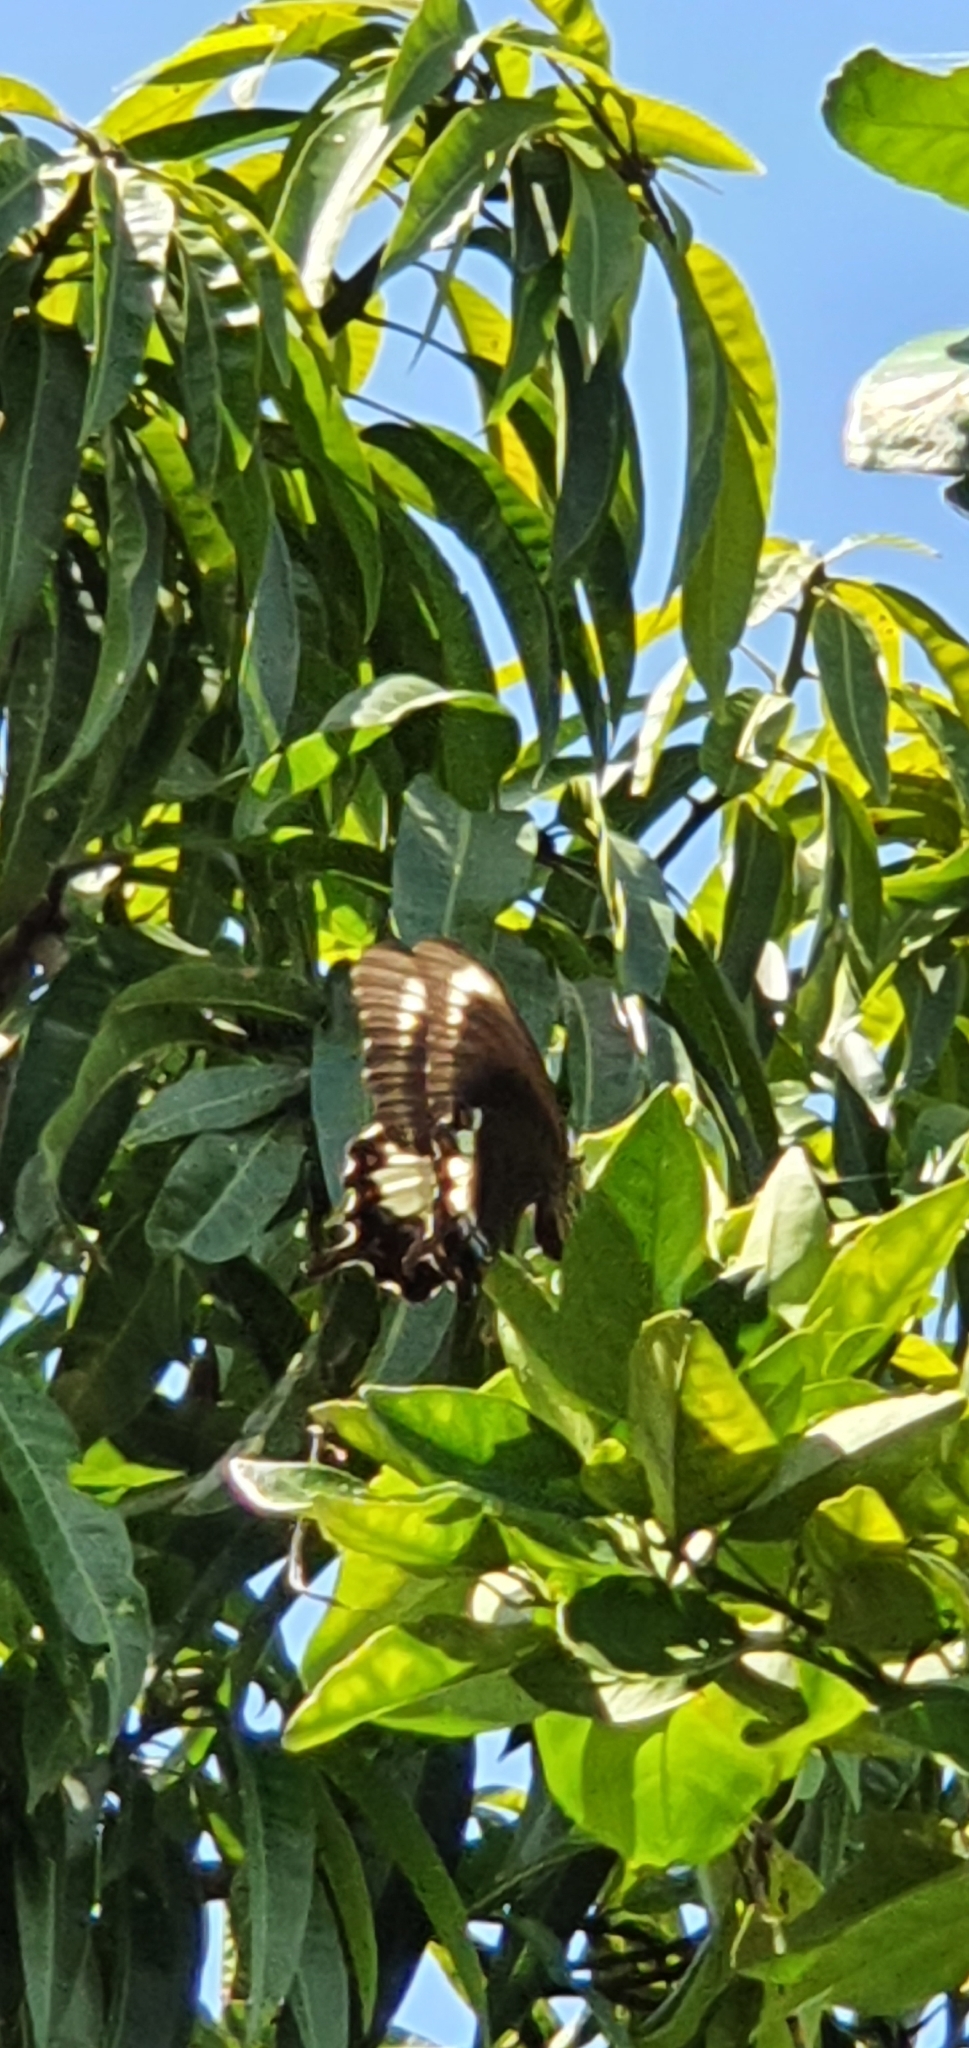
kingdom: Animalia
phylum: Arthropoda
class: Insecta
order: Lepidoptera
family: Papilionidae
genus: Papilio
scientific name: Papilio aegeus
